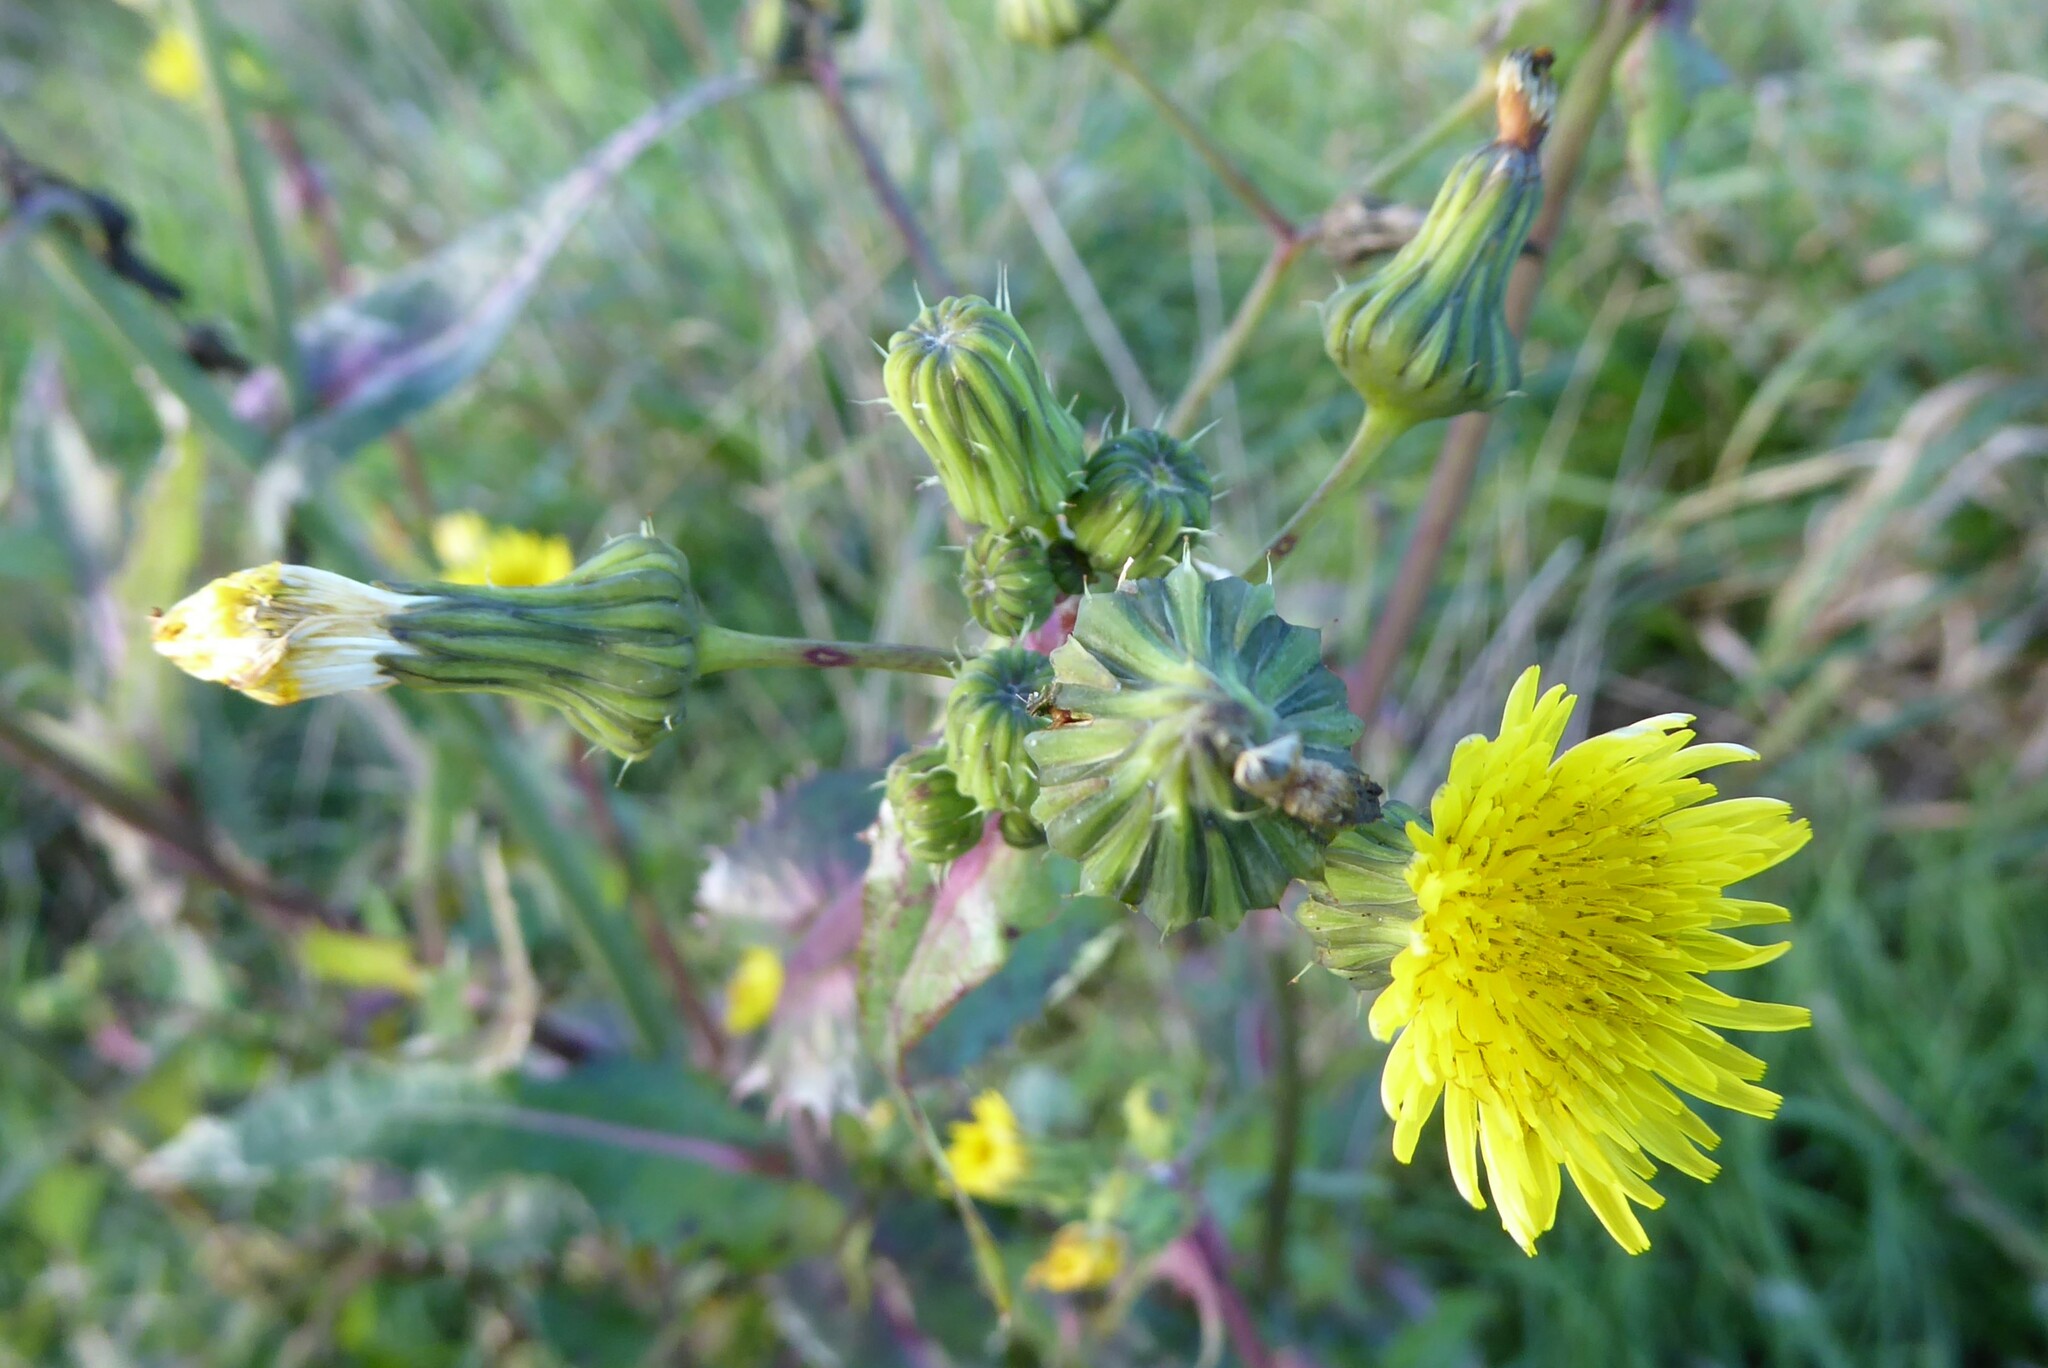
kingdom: Plantae
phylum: Tracheophyta
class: Magnoliopsida
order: Asterales
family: Asteraceae
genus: Sonchus
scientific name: Sonchus oleraceus
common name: Common sowthistle
